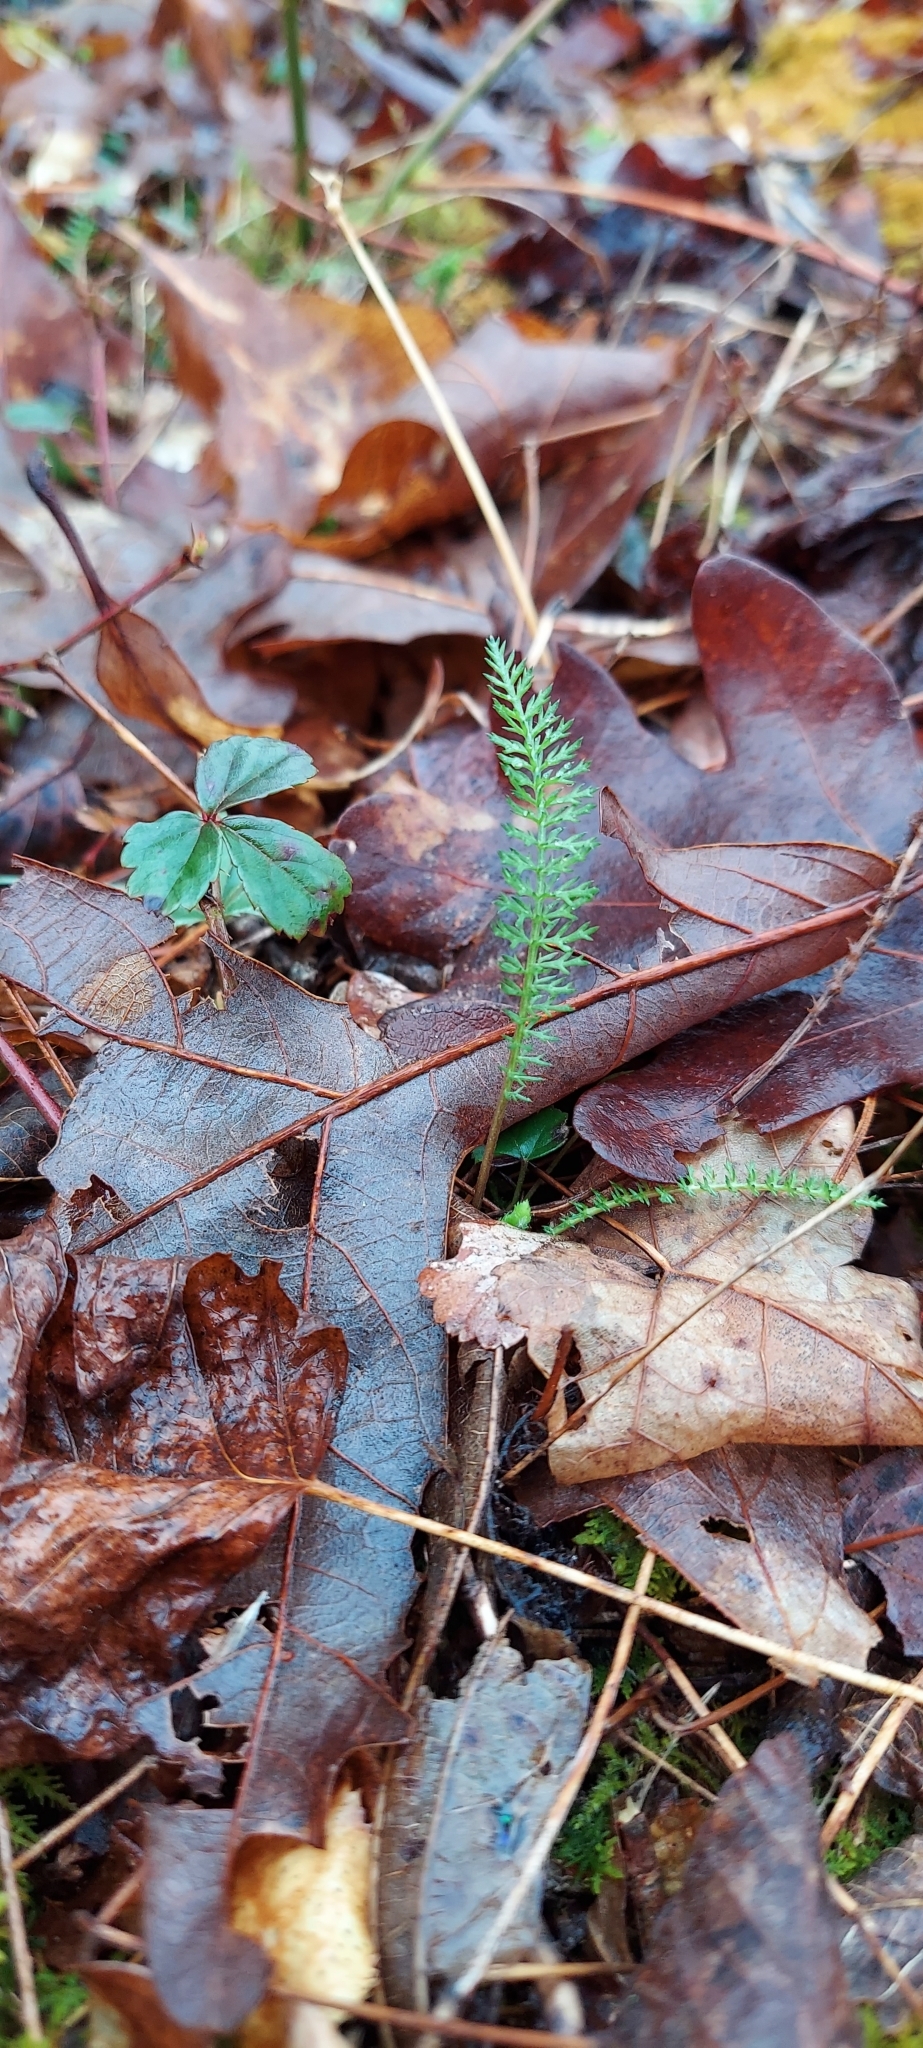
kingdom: Plantae
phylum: Tracheophyta
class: Magnoliopsida
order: Asterales
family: Asteraceae
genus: Achillea
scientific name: Achillea millefolium
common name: Yarrow
